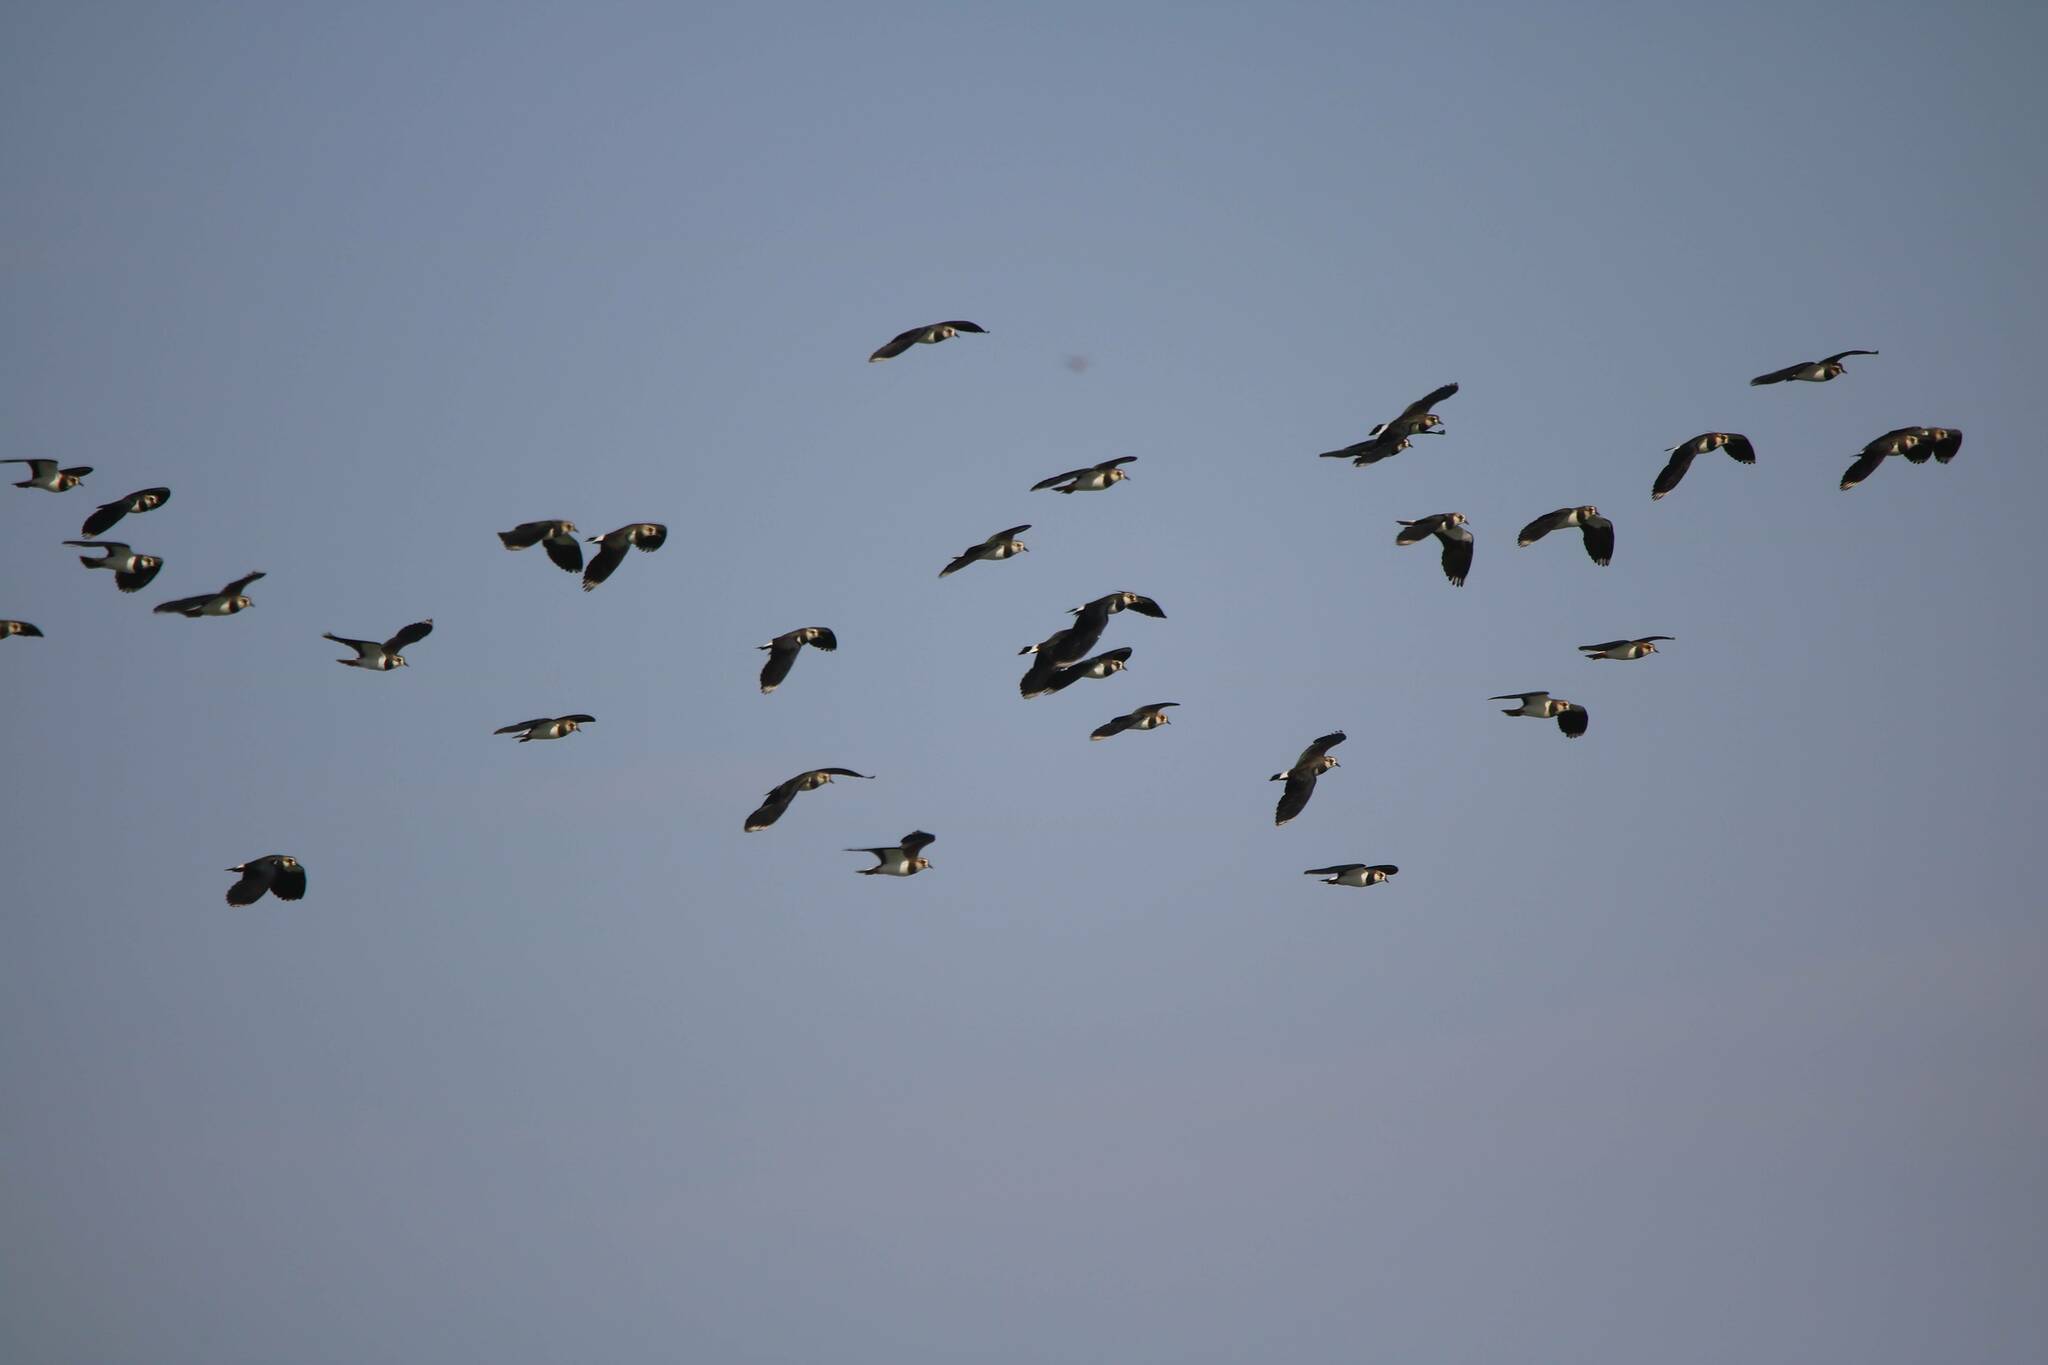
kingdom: Animalia
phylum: Chordata
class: Aves
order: Charadriiformes
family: Charadriidae
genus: Vanellus
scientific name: Vanellus vanellus
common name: Northern lapwing
